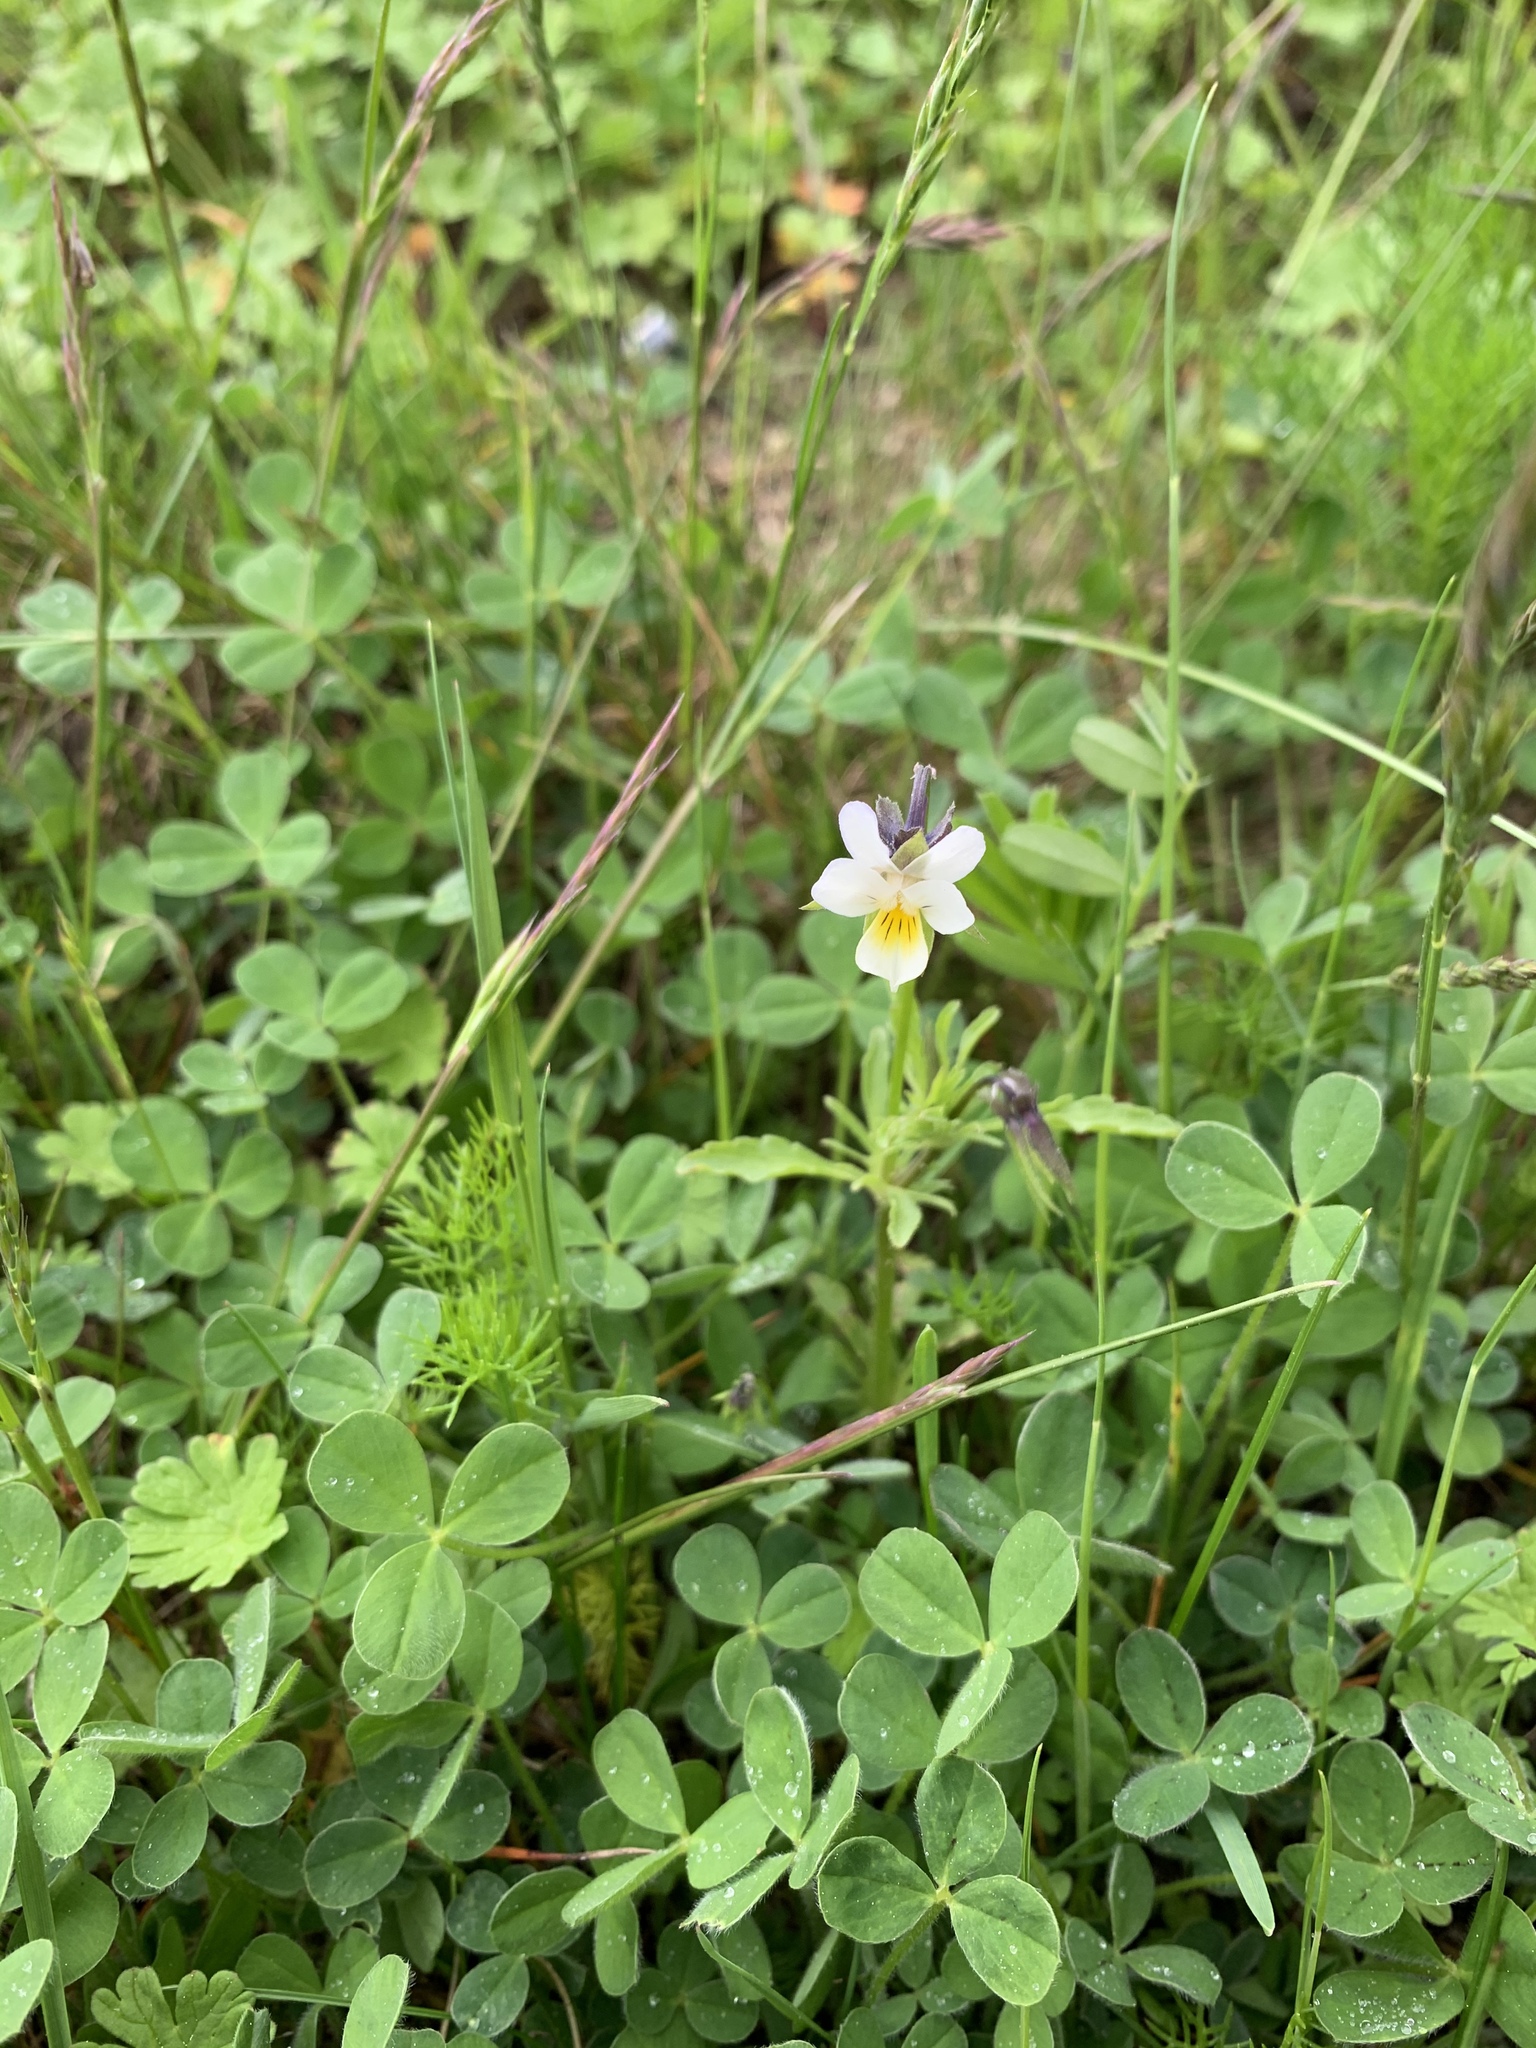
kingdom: Plantae
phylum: Tracheophyta
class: Magnoliopsida
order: Malpighiales
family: Violaceae
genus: Viola
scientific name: Viola arvensis
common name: Field pansy
